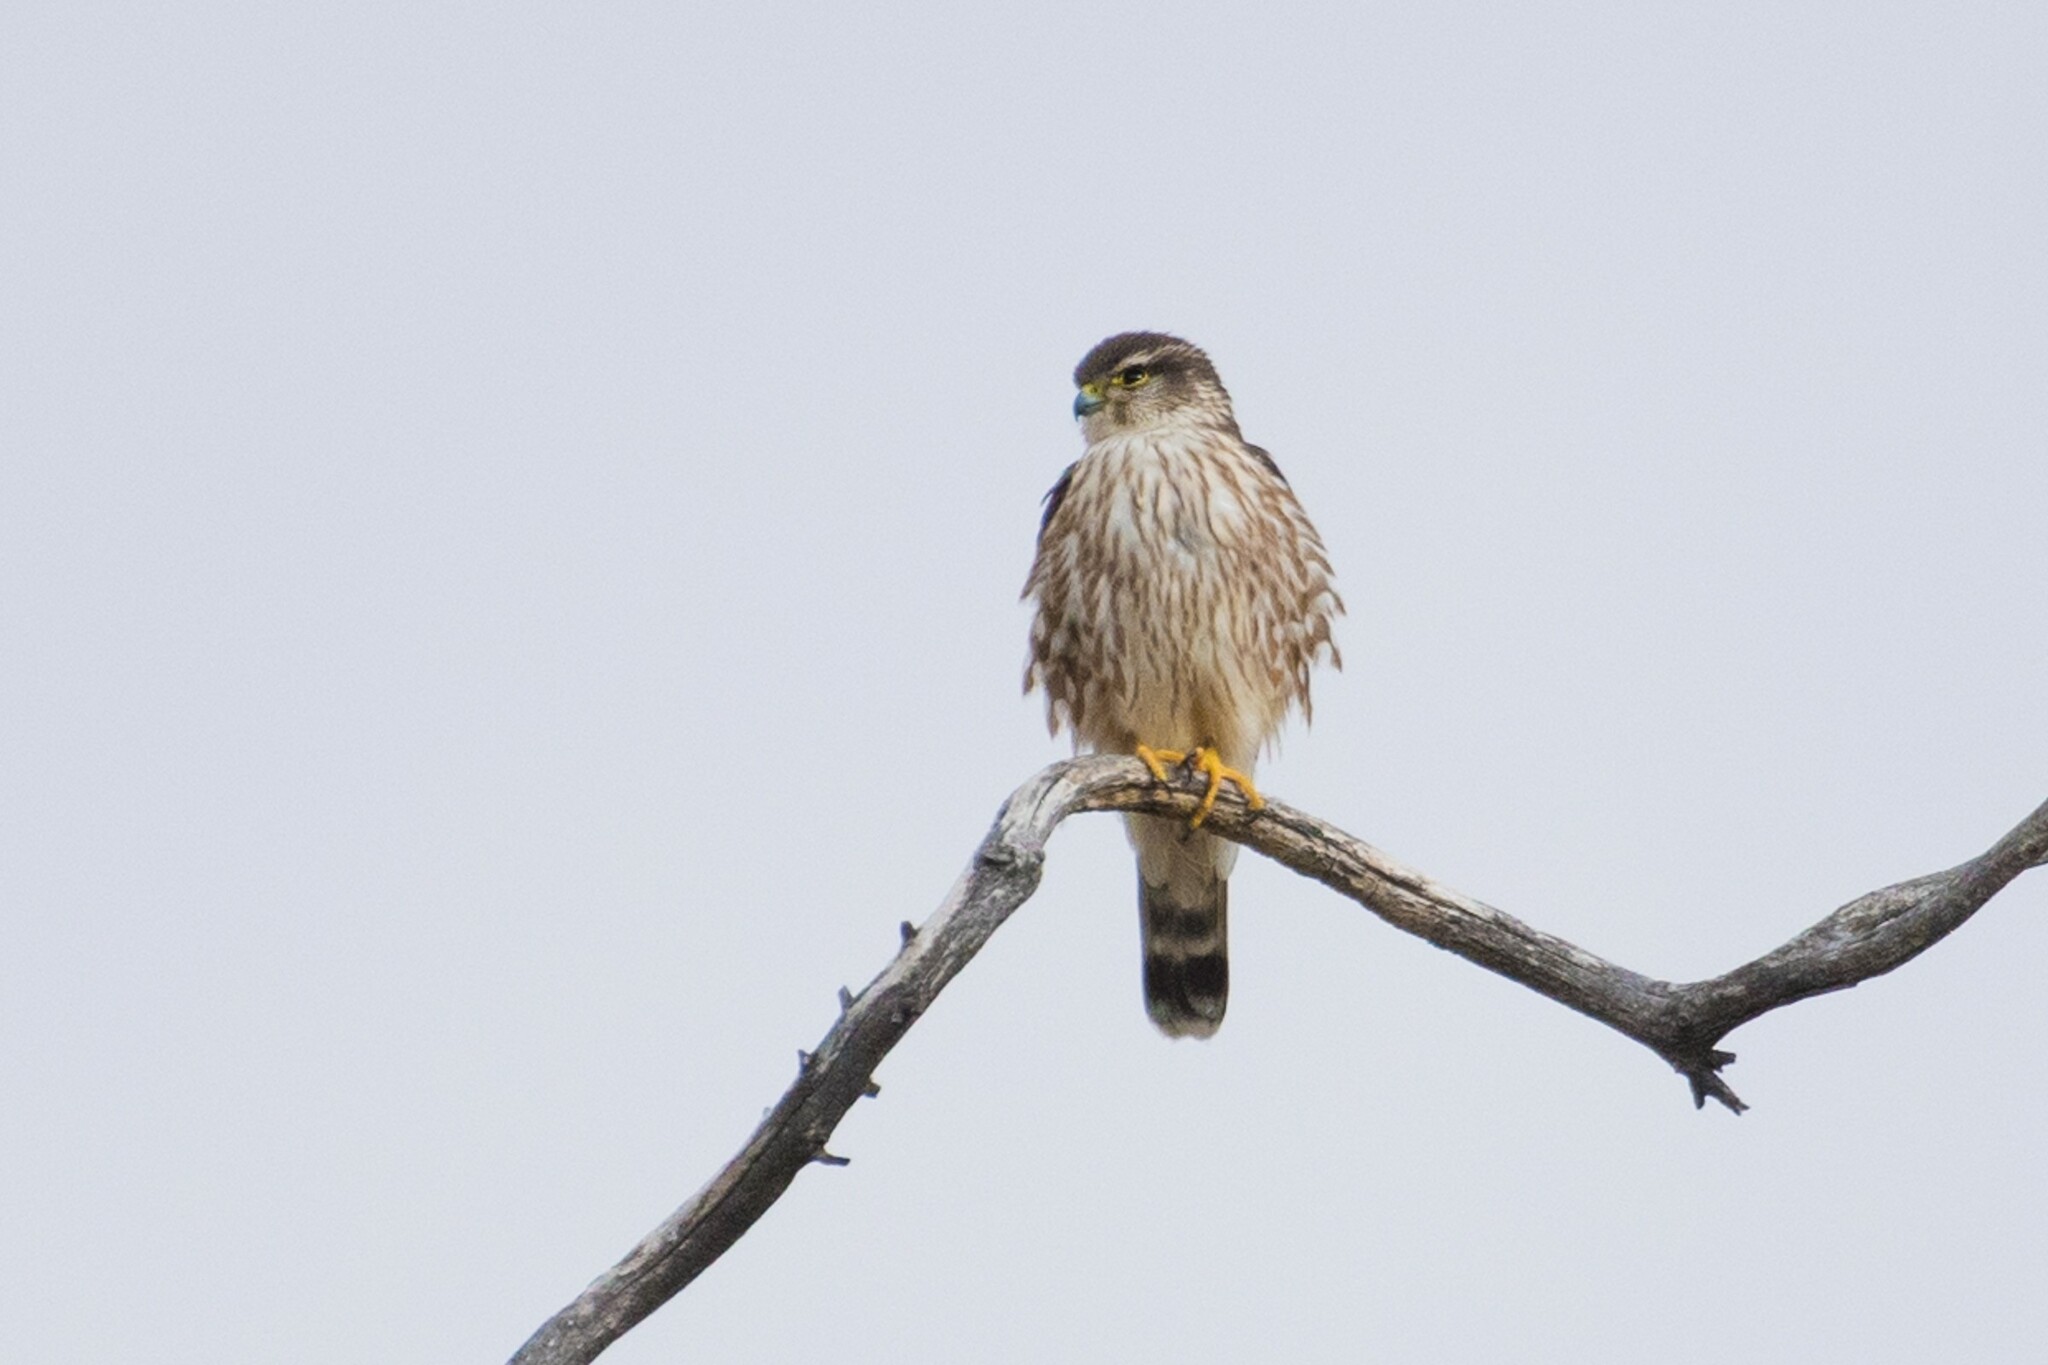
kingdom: Animalia
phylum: Chordata
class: Aves
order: Falconiformes
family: Falconidae
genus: Falco
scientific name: Falco columbarius
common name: Merlin
